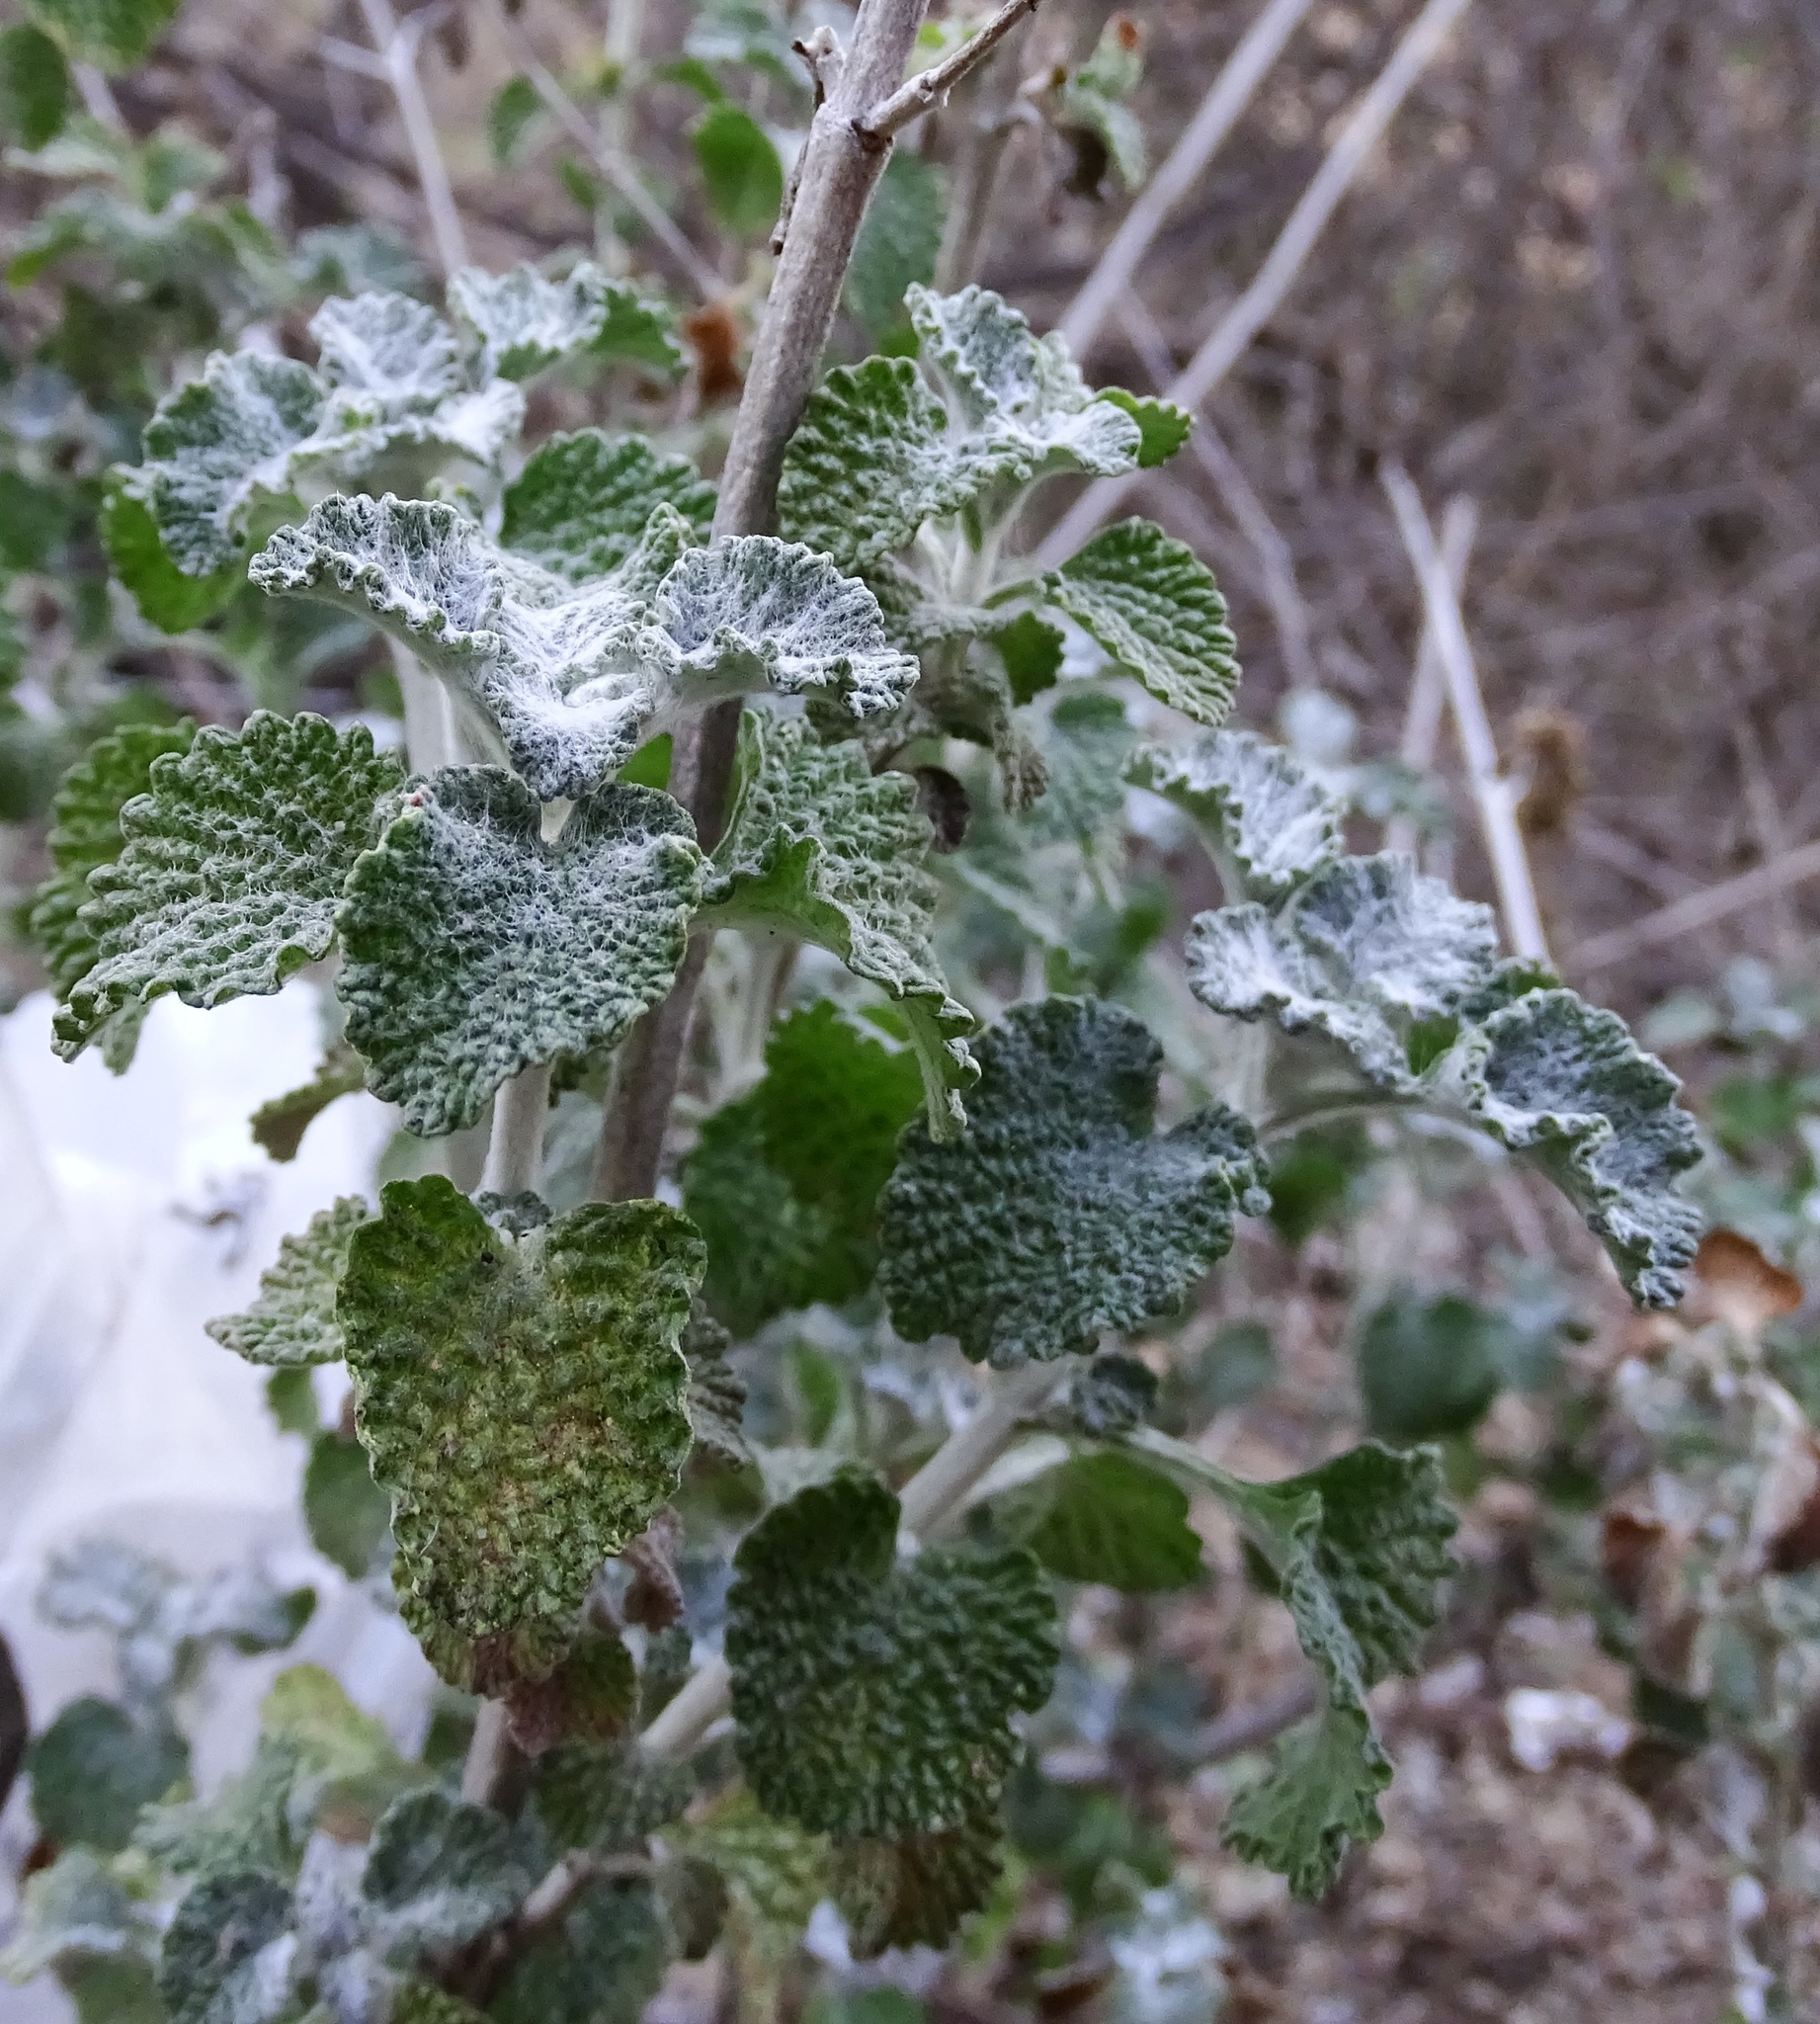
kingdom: Plantae
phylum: Tracheophyta
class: Magnoliopsida
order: Lamiales
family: Lamiaceae
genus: Marrubium
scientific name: Marrubium vulgare
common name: Horehound
